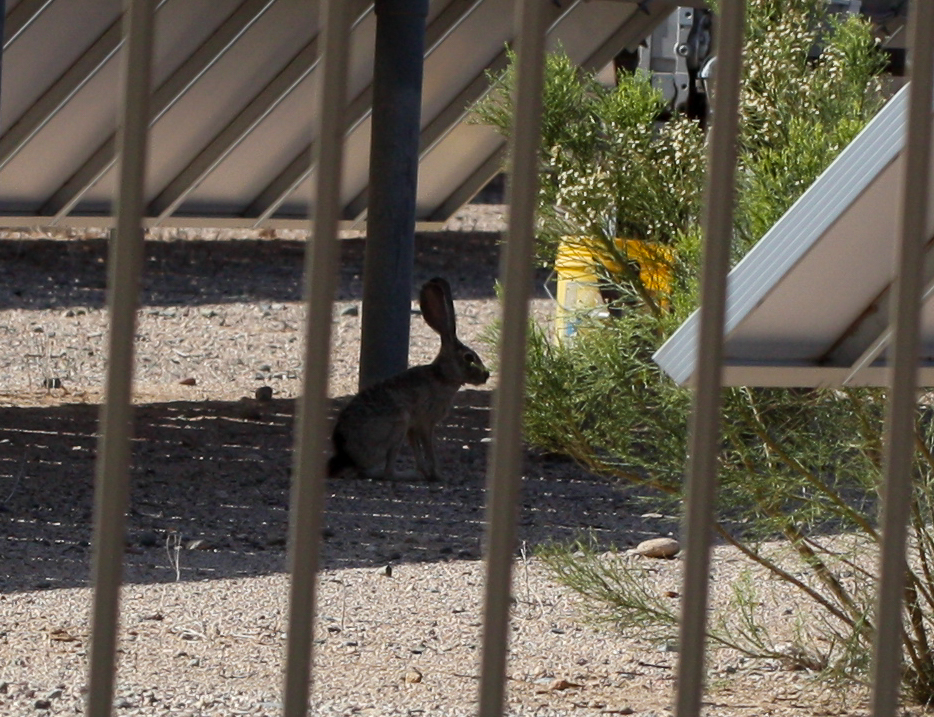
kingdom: Animalia
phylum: Chordata
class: Mammalia
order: Lagomorpha
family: Leporidae
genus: Lepus
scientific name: Lepus californicus
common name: Black-tailed jackrabbit
